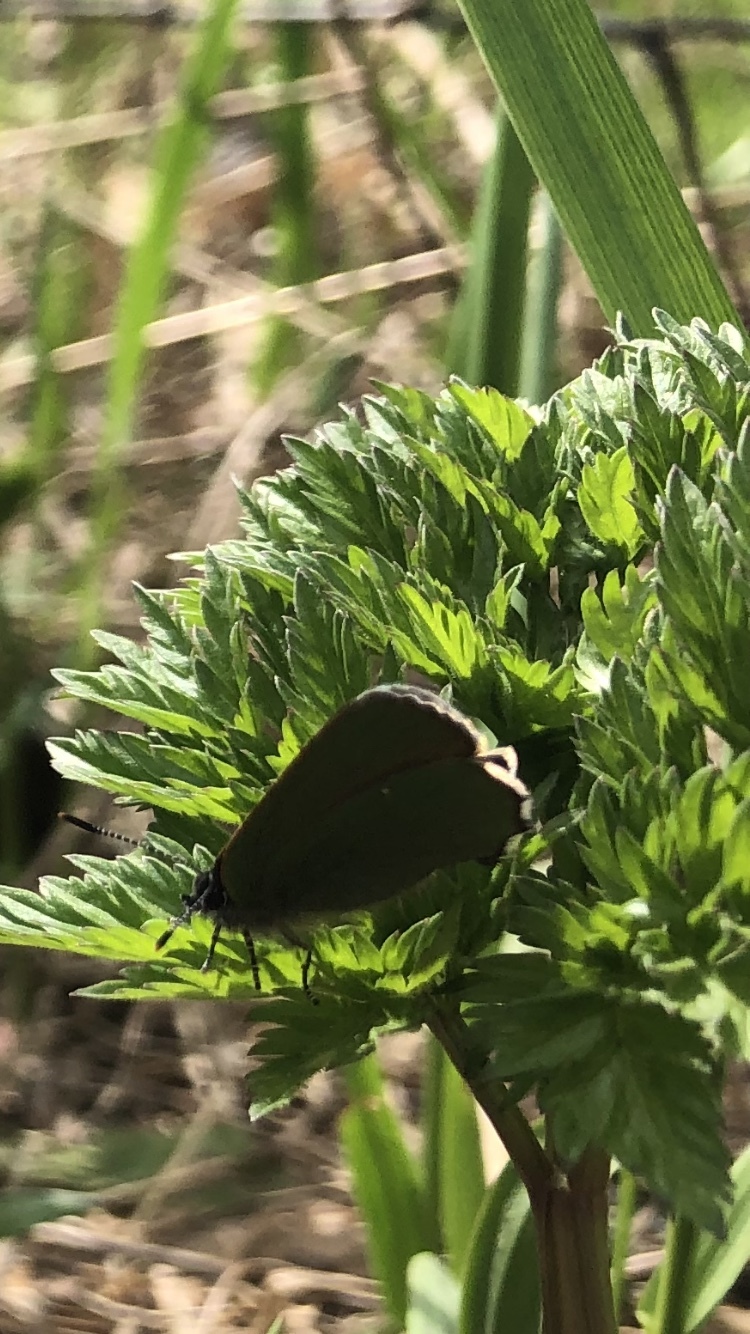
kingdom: Animalia
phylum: Arthropoda
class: Insecta
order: Lepidoptera
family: Lycaenidae
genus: Callophrys
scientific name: Callophrys rubi
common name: Green hairstreak
